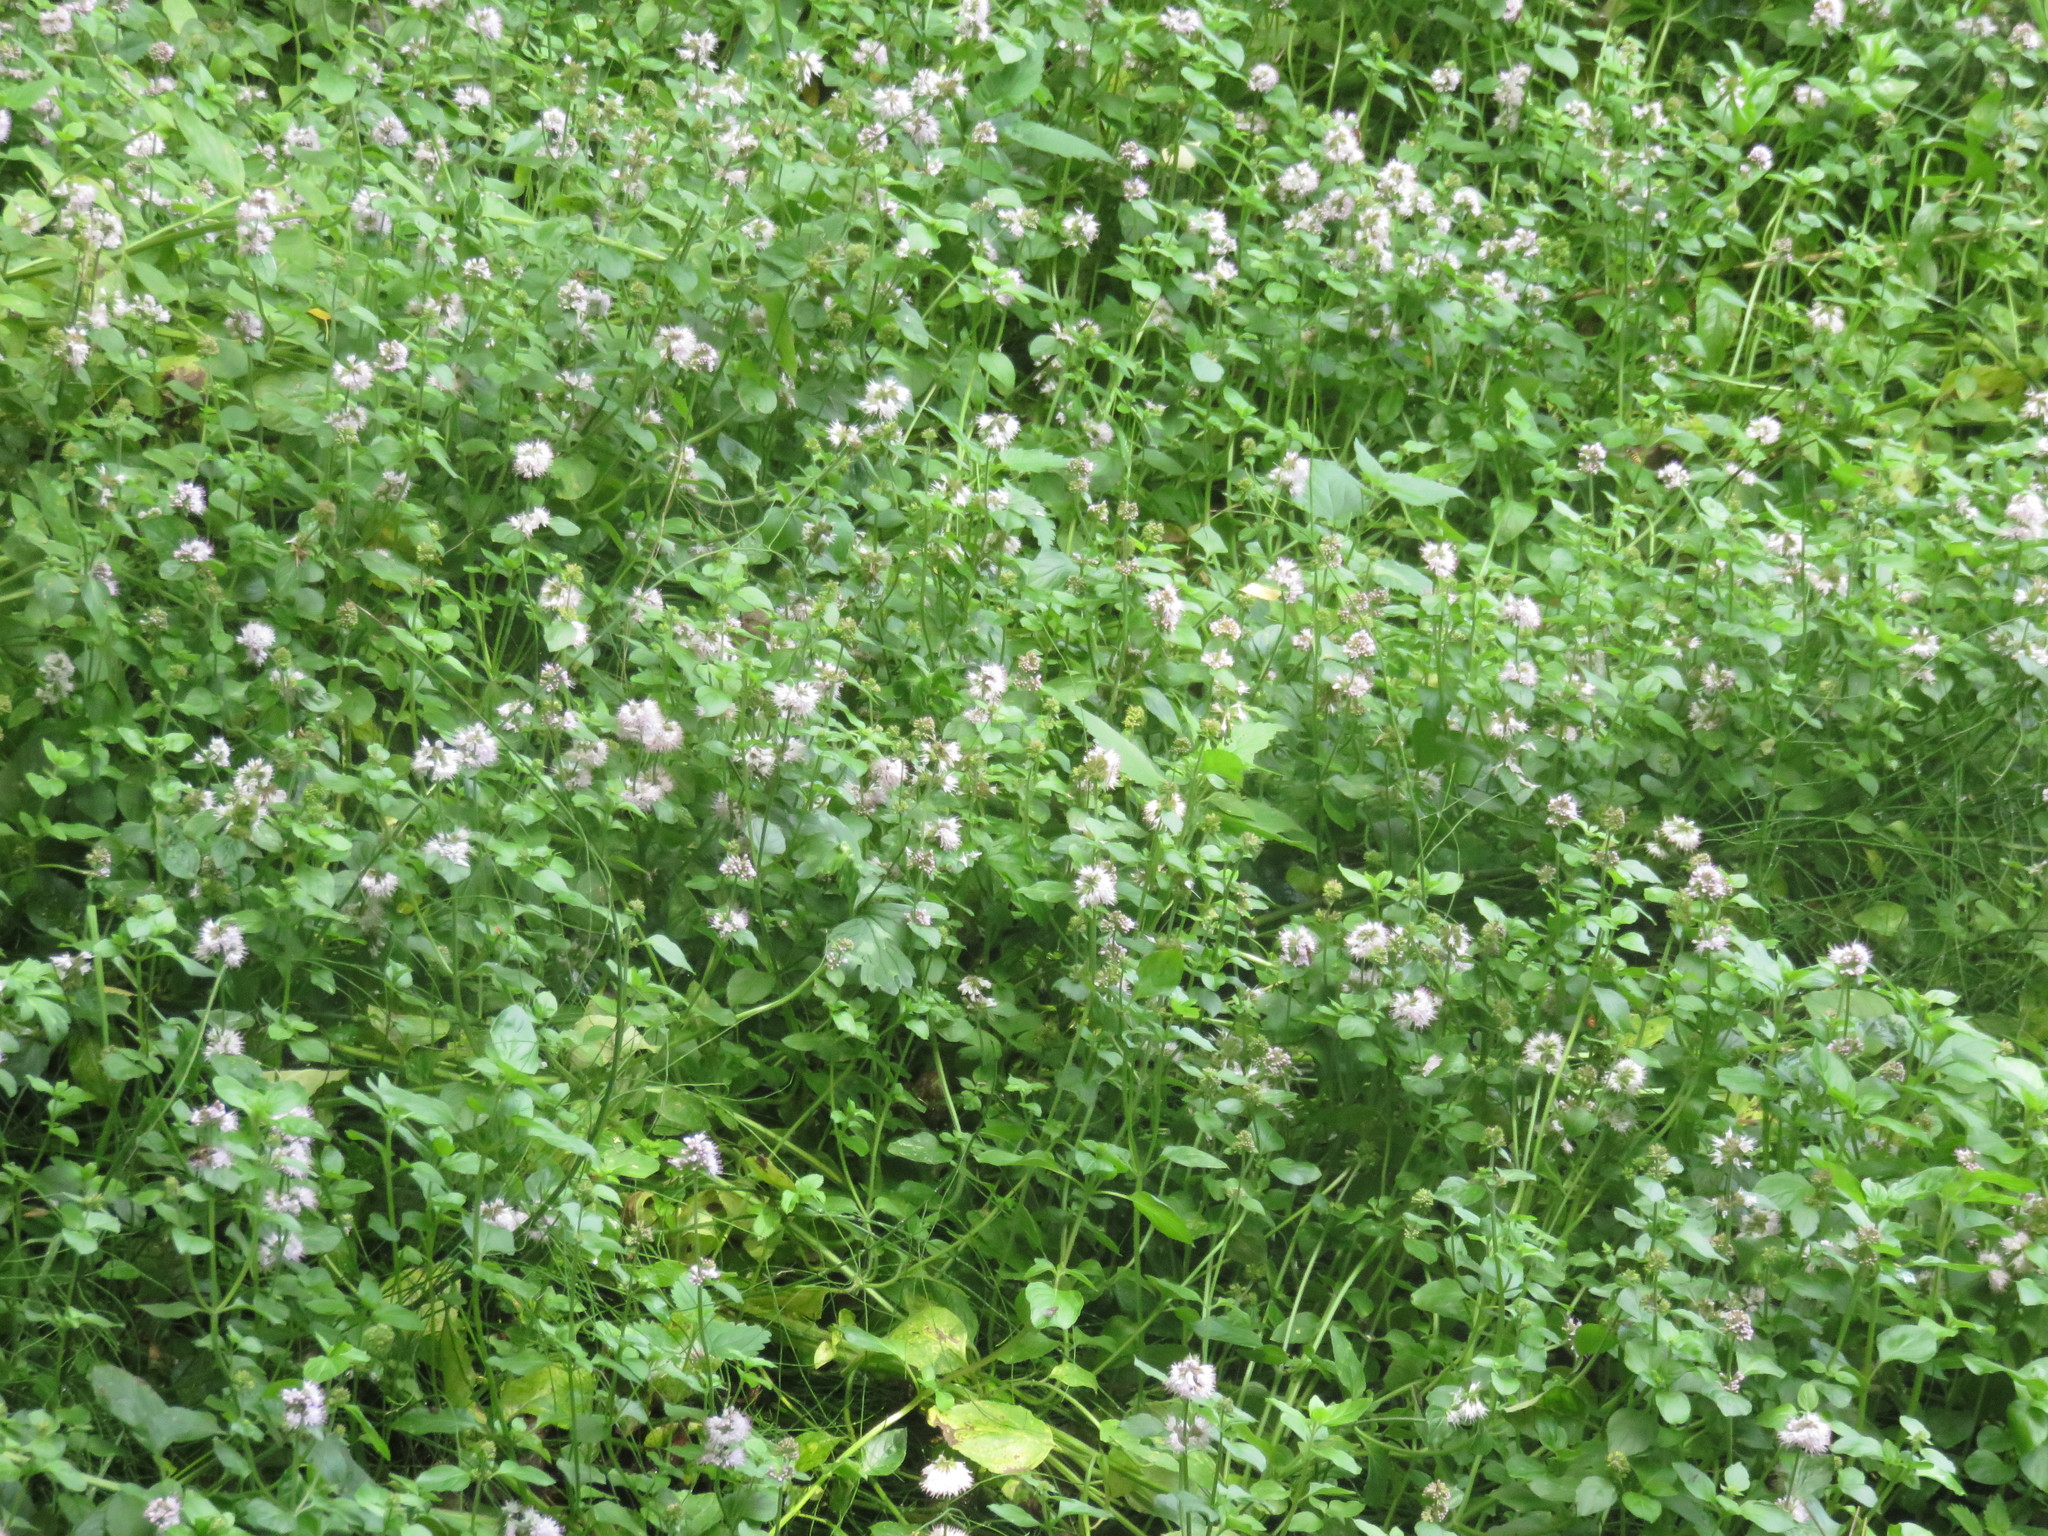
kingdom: Plantae
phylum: Tracheophyta
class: Magnoliopsida
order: Lamiales
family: Lamiaceae
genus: Mentha
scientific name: Mentha aquatica
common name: Water mint
